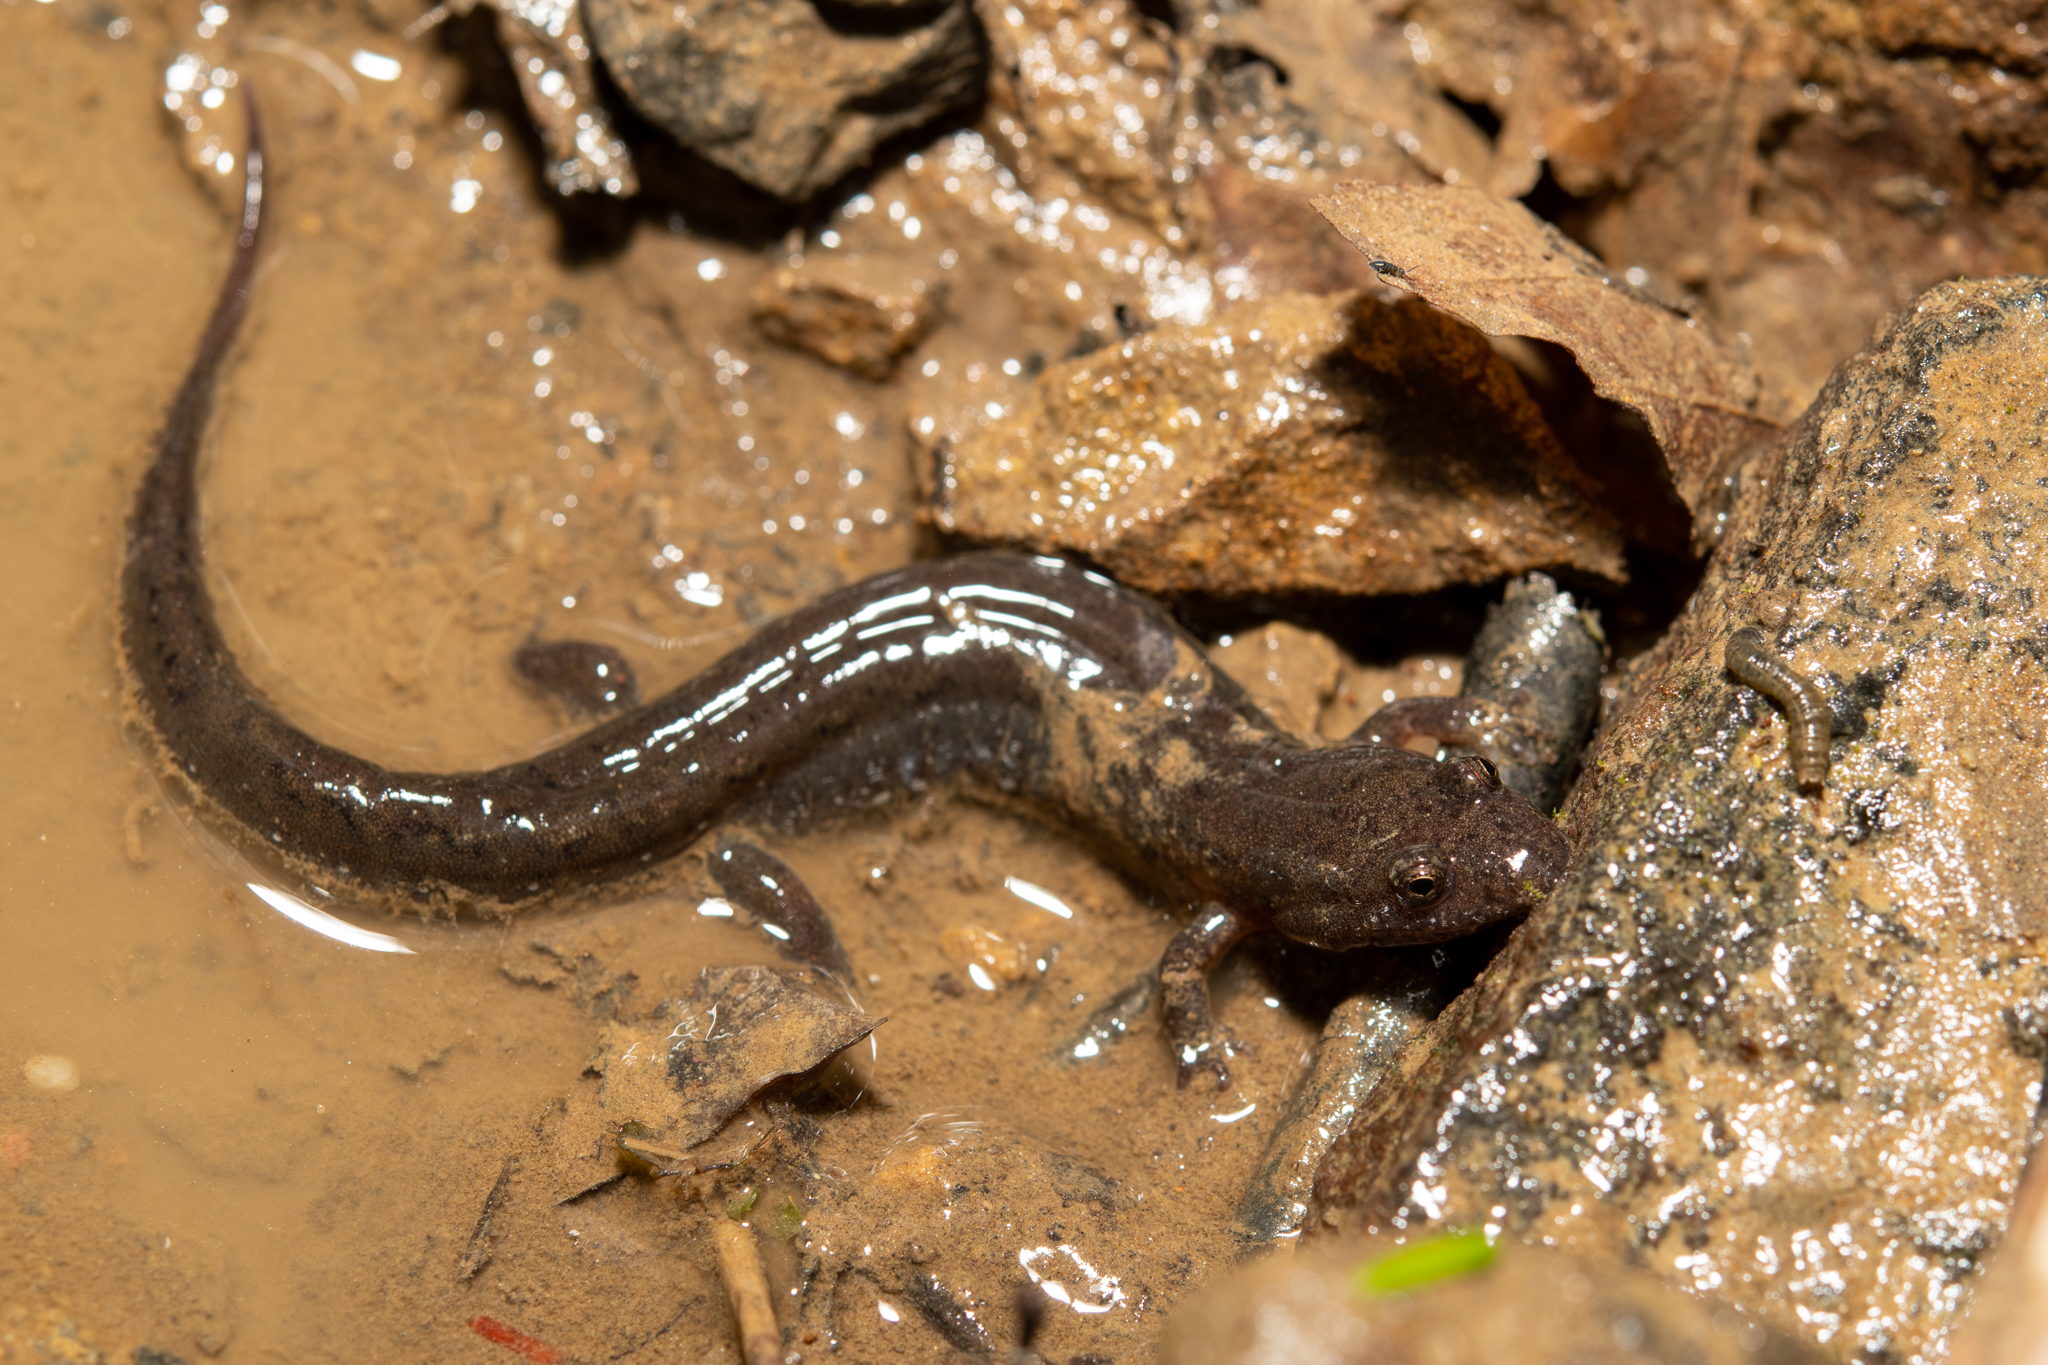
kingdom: Animalia
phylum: Chordata
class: Amphibia
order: Caudata
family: Plethodontidae
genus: Desmognathus
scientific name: Desmognathus fuscus
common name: Northern dusky salamander
